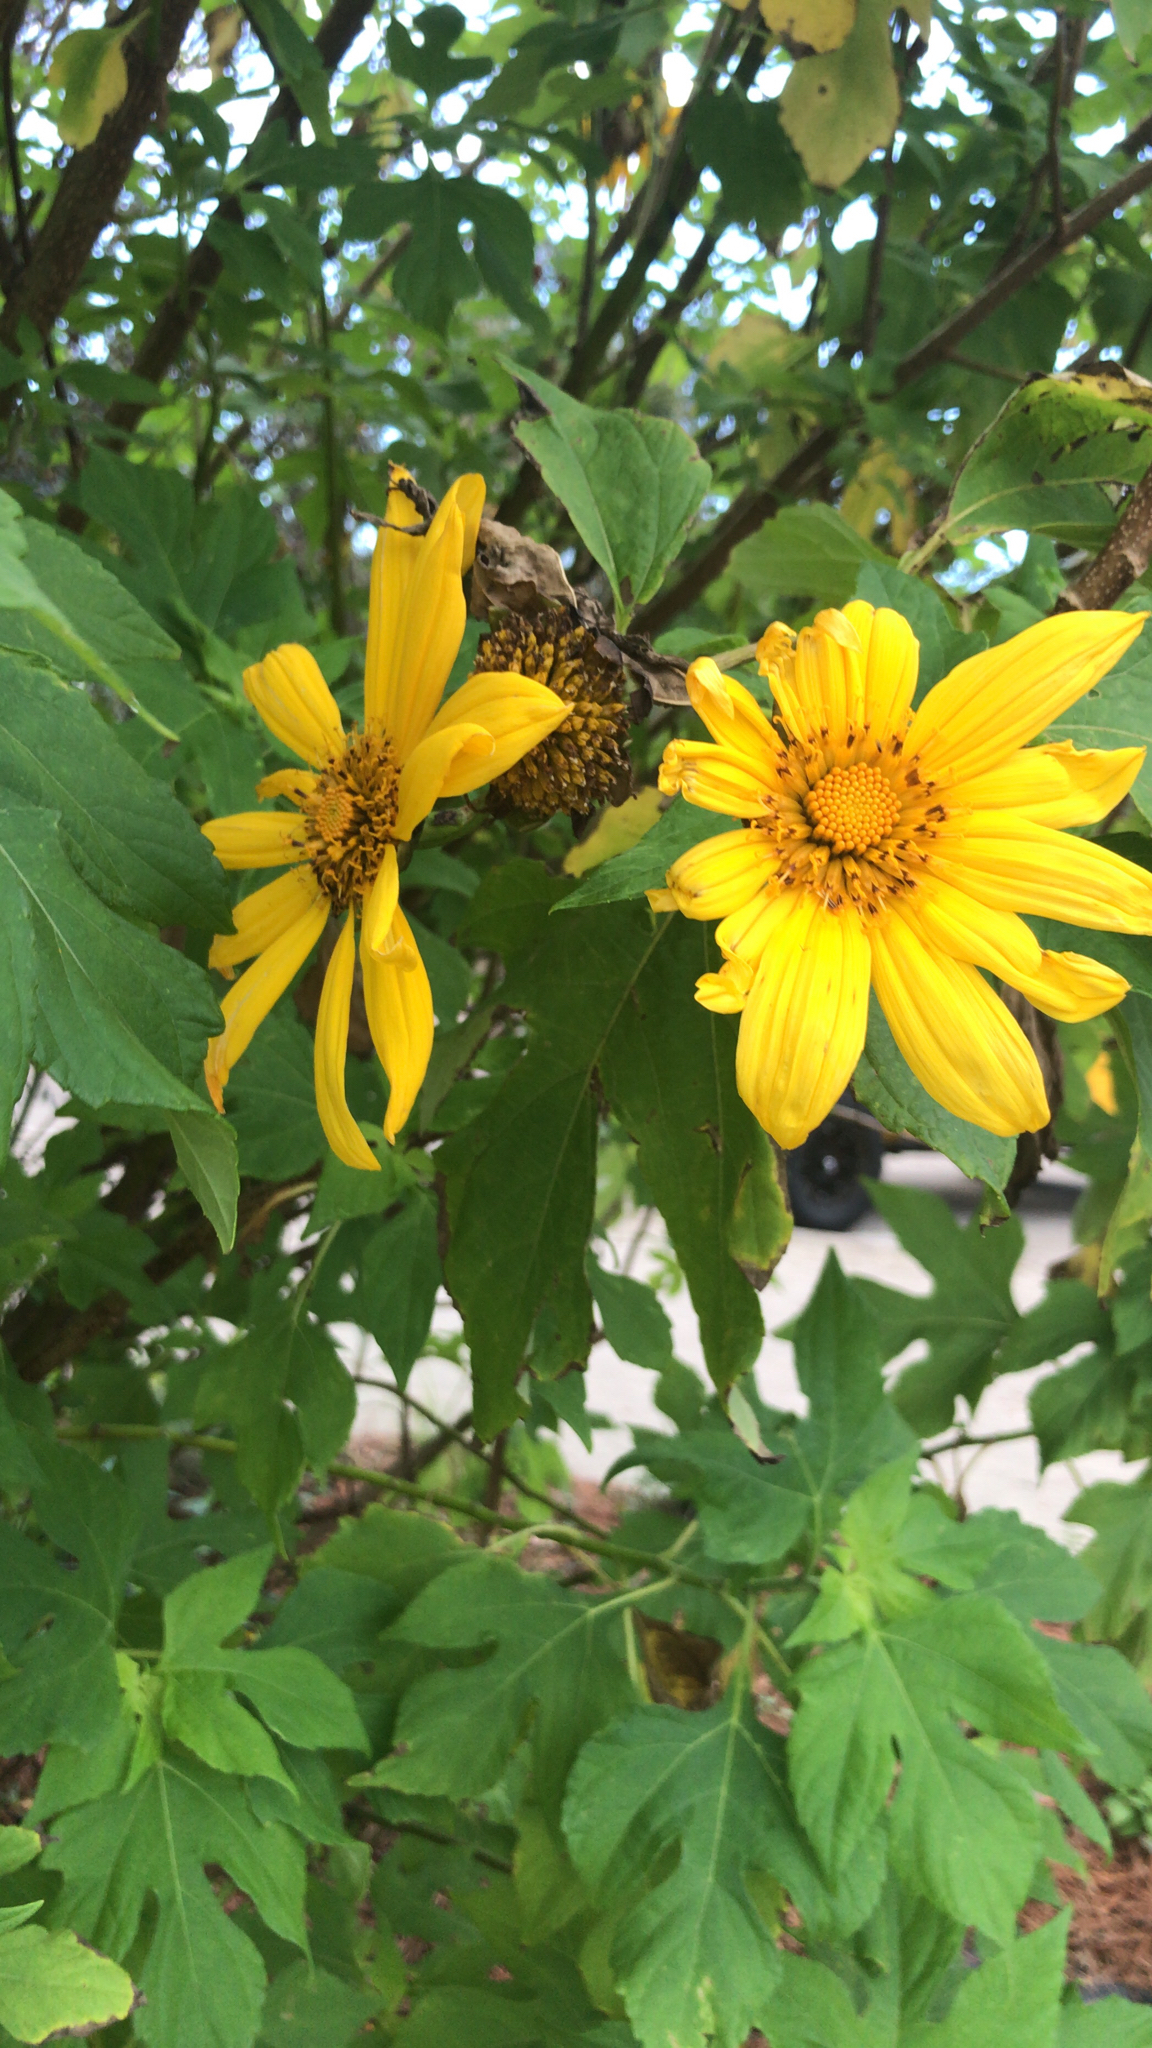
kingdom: Plantae
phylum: Tracheophyta
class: Magnoliopsida
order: Asterales
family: Asteraceae
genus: Tithonia
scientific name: Tithonia diversifolia
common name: Tree marigold
